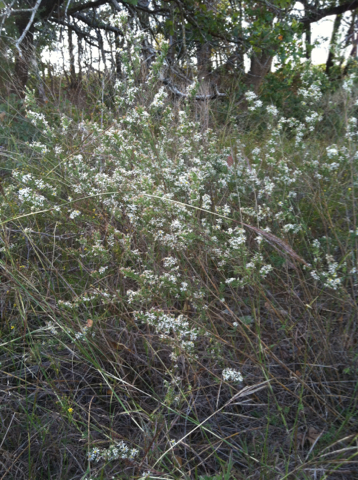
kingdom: Plantae
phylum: Tracheophyta
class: Magnoliopsida
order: Asterales
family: Asteraceae
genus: Symphyotrichum
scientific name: Symphyotrichum ericoides
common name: Heath aster
